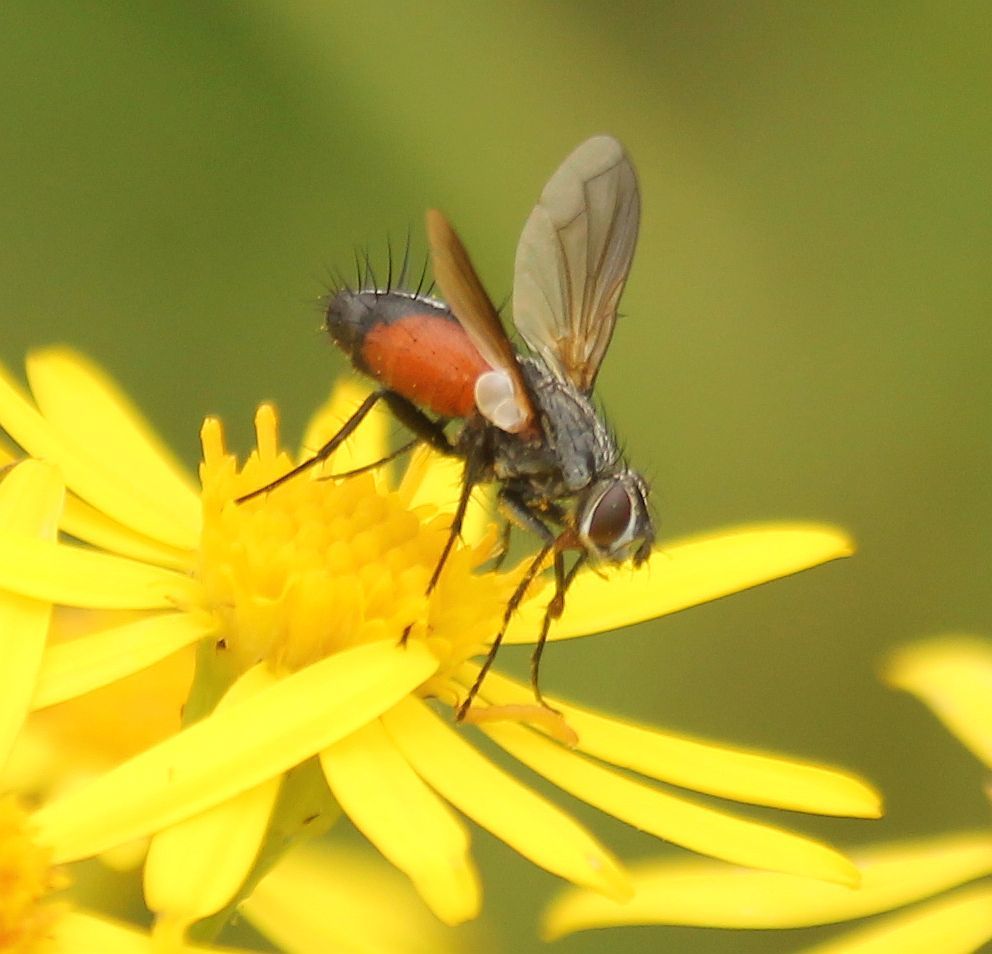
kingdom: Animalia
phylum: Arthropoda
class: Insecta
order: Diptera
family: Tachinidae
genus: Eriothrix
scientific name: Eriothrix rufomaculatus
